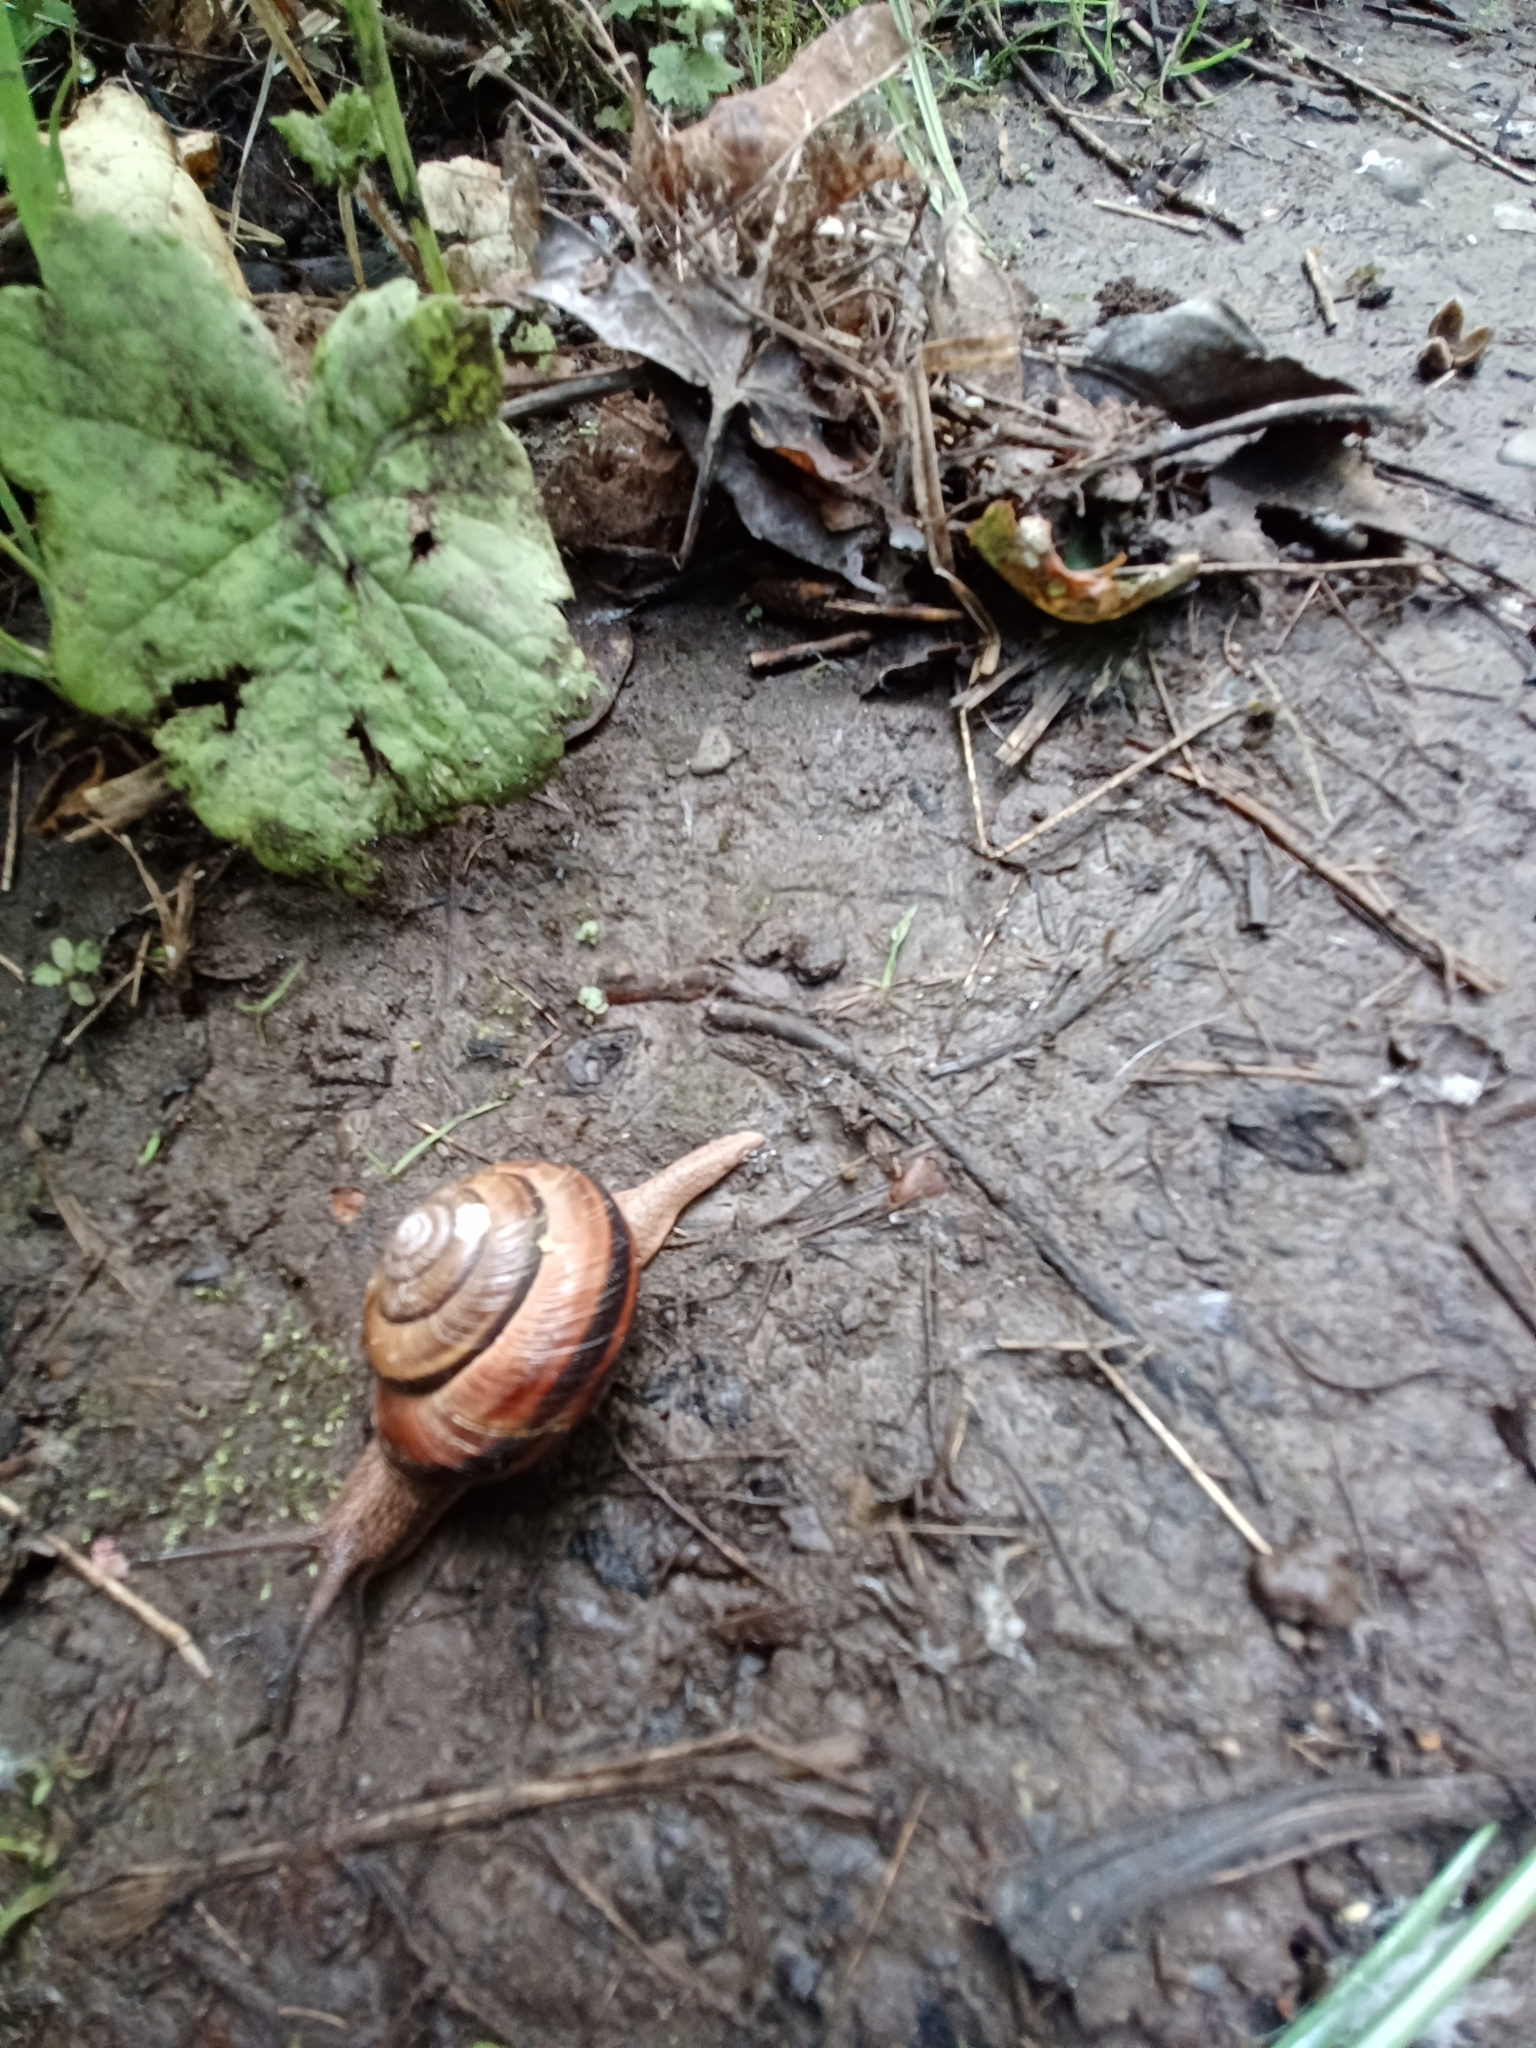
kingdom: Animalia
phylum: Mollusca
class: Gastropoda
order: Stylommatophora
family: Xanthonychidae
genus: Monadenia
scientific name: Monadenia fidelis
